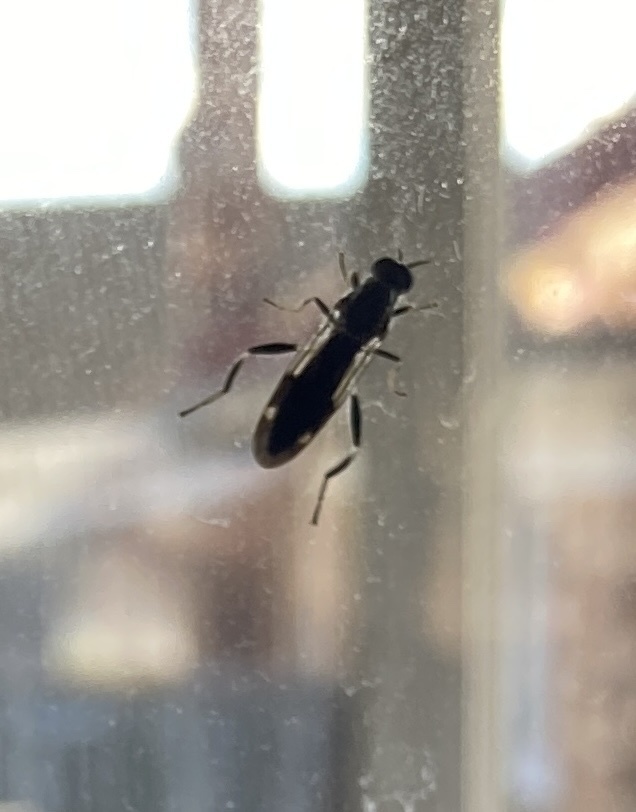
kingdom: Animalia
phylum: Arthropoda
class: Insecta
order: Diptera
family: Stratiomyidae
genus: Exaireta
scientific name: Exaireta spinigera
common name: Blue soldier fly
